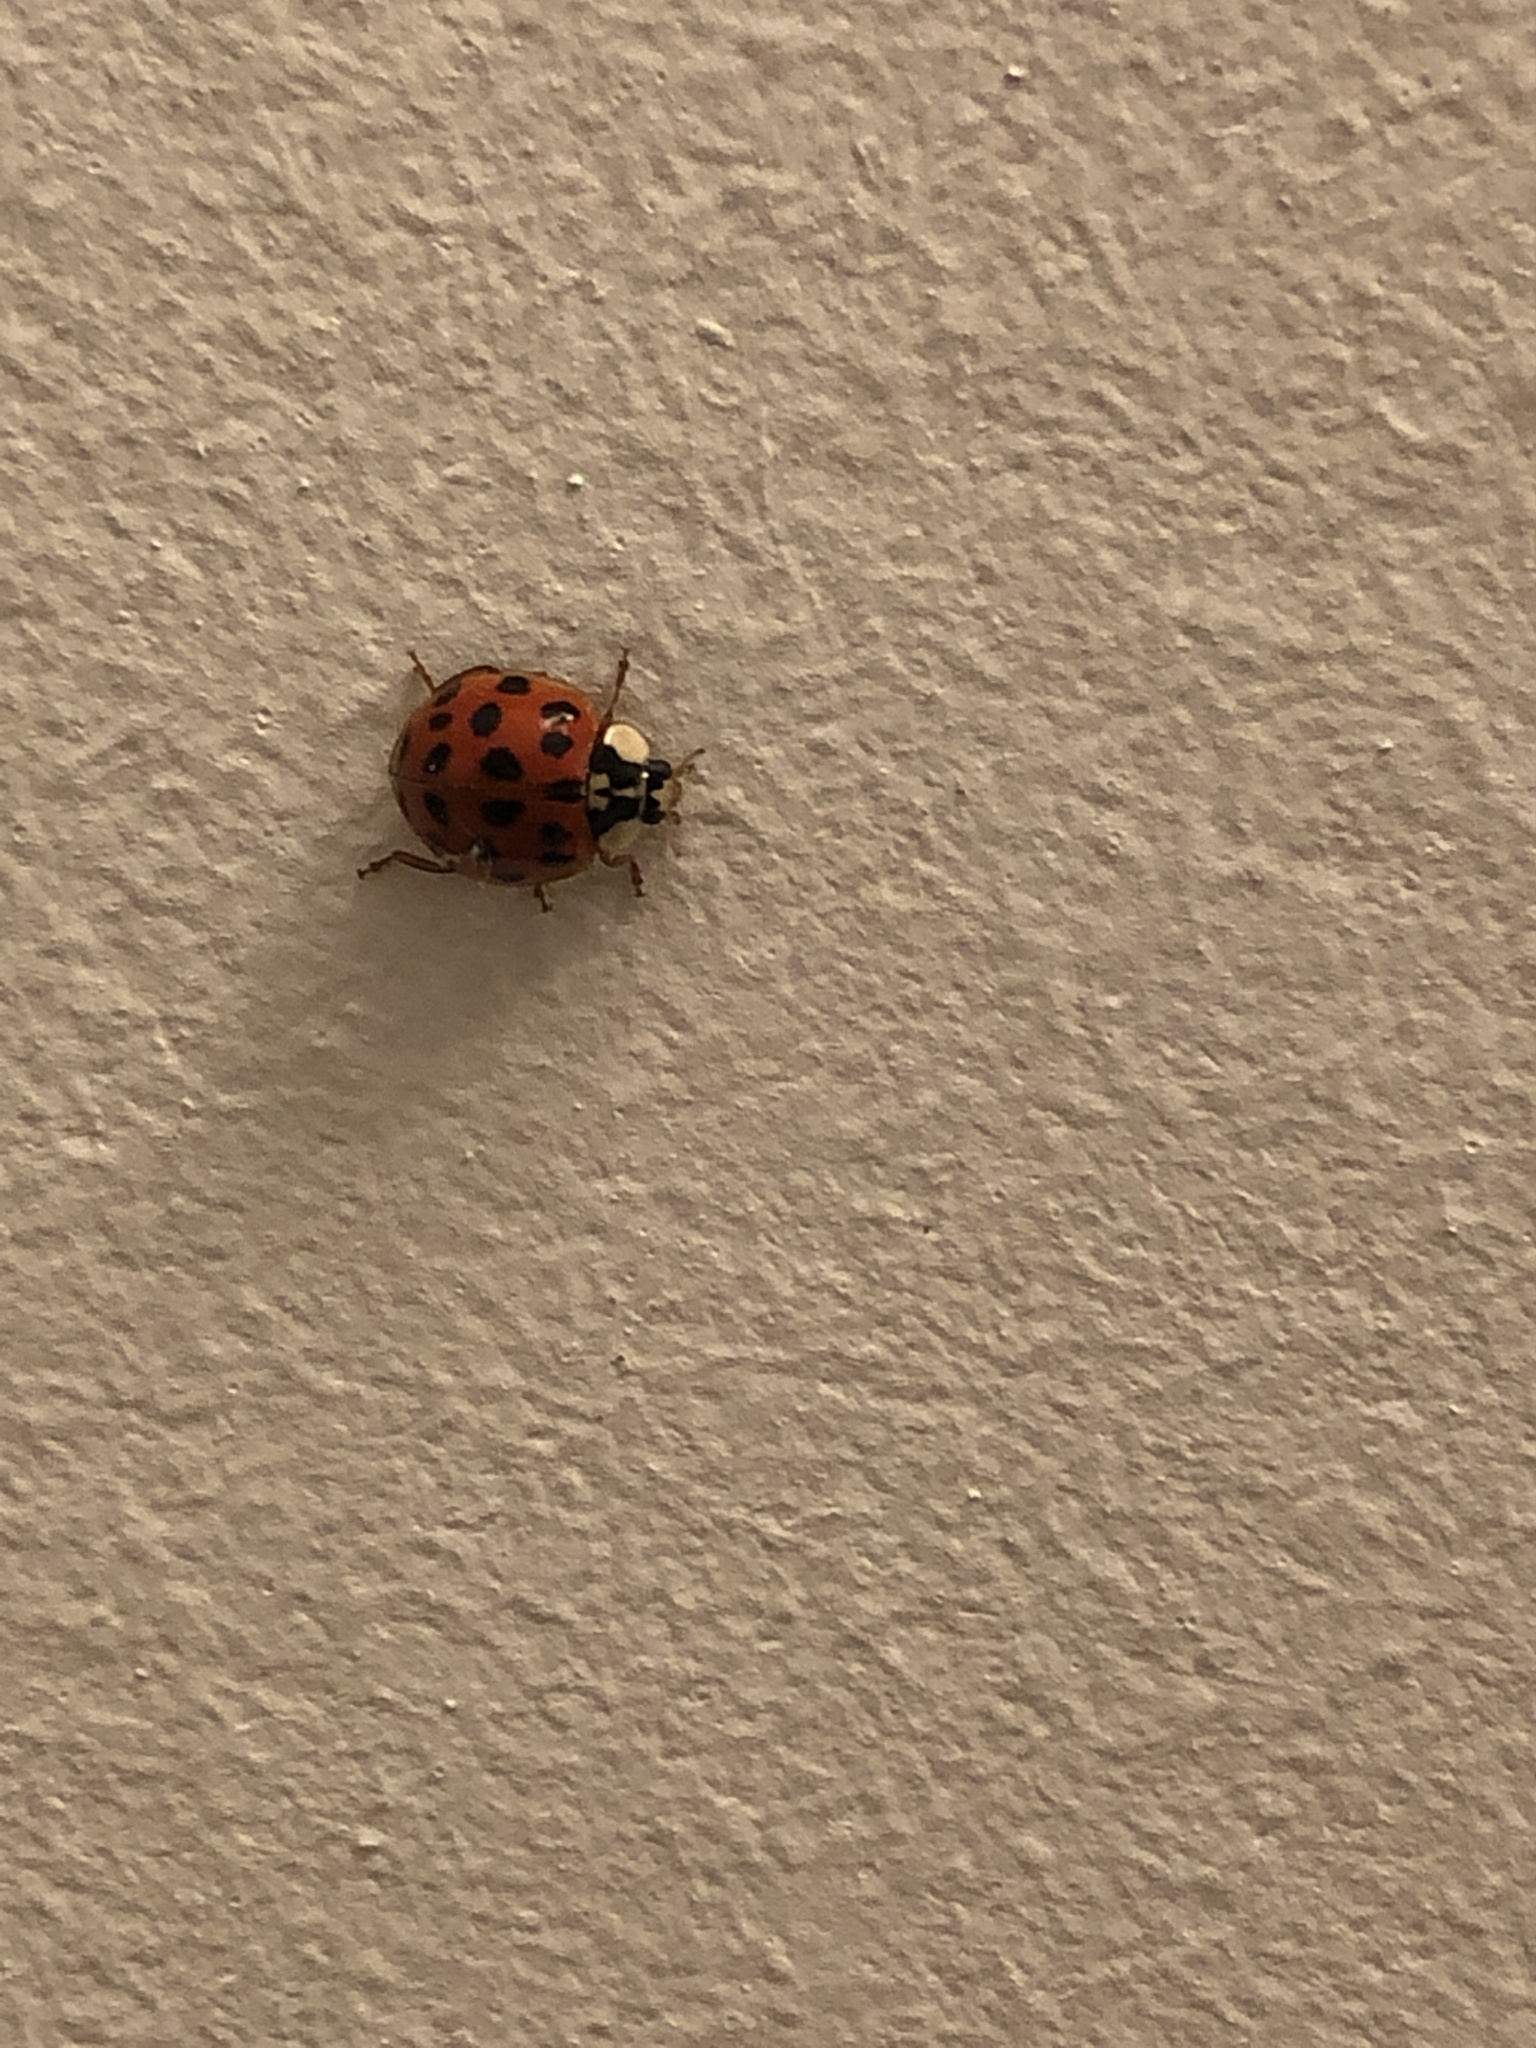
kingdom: Animalia
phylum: Arthropoda
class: Insecta
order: Coleoptera
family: Coccinellidae
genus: Harmonia
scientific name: Harmonia axyridis
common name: Harlequin ladybird
